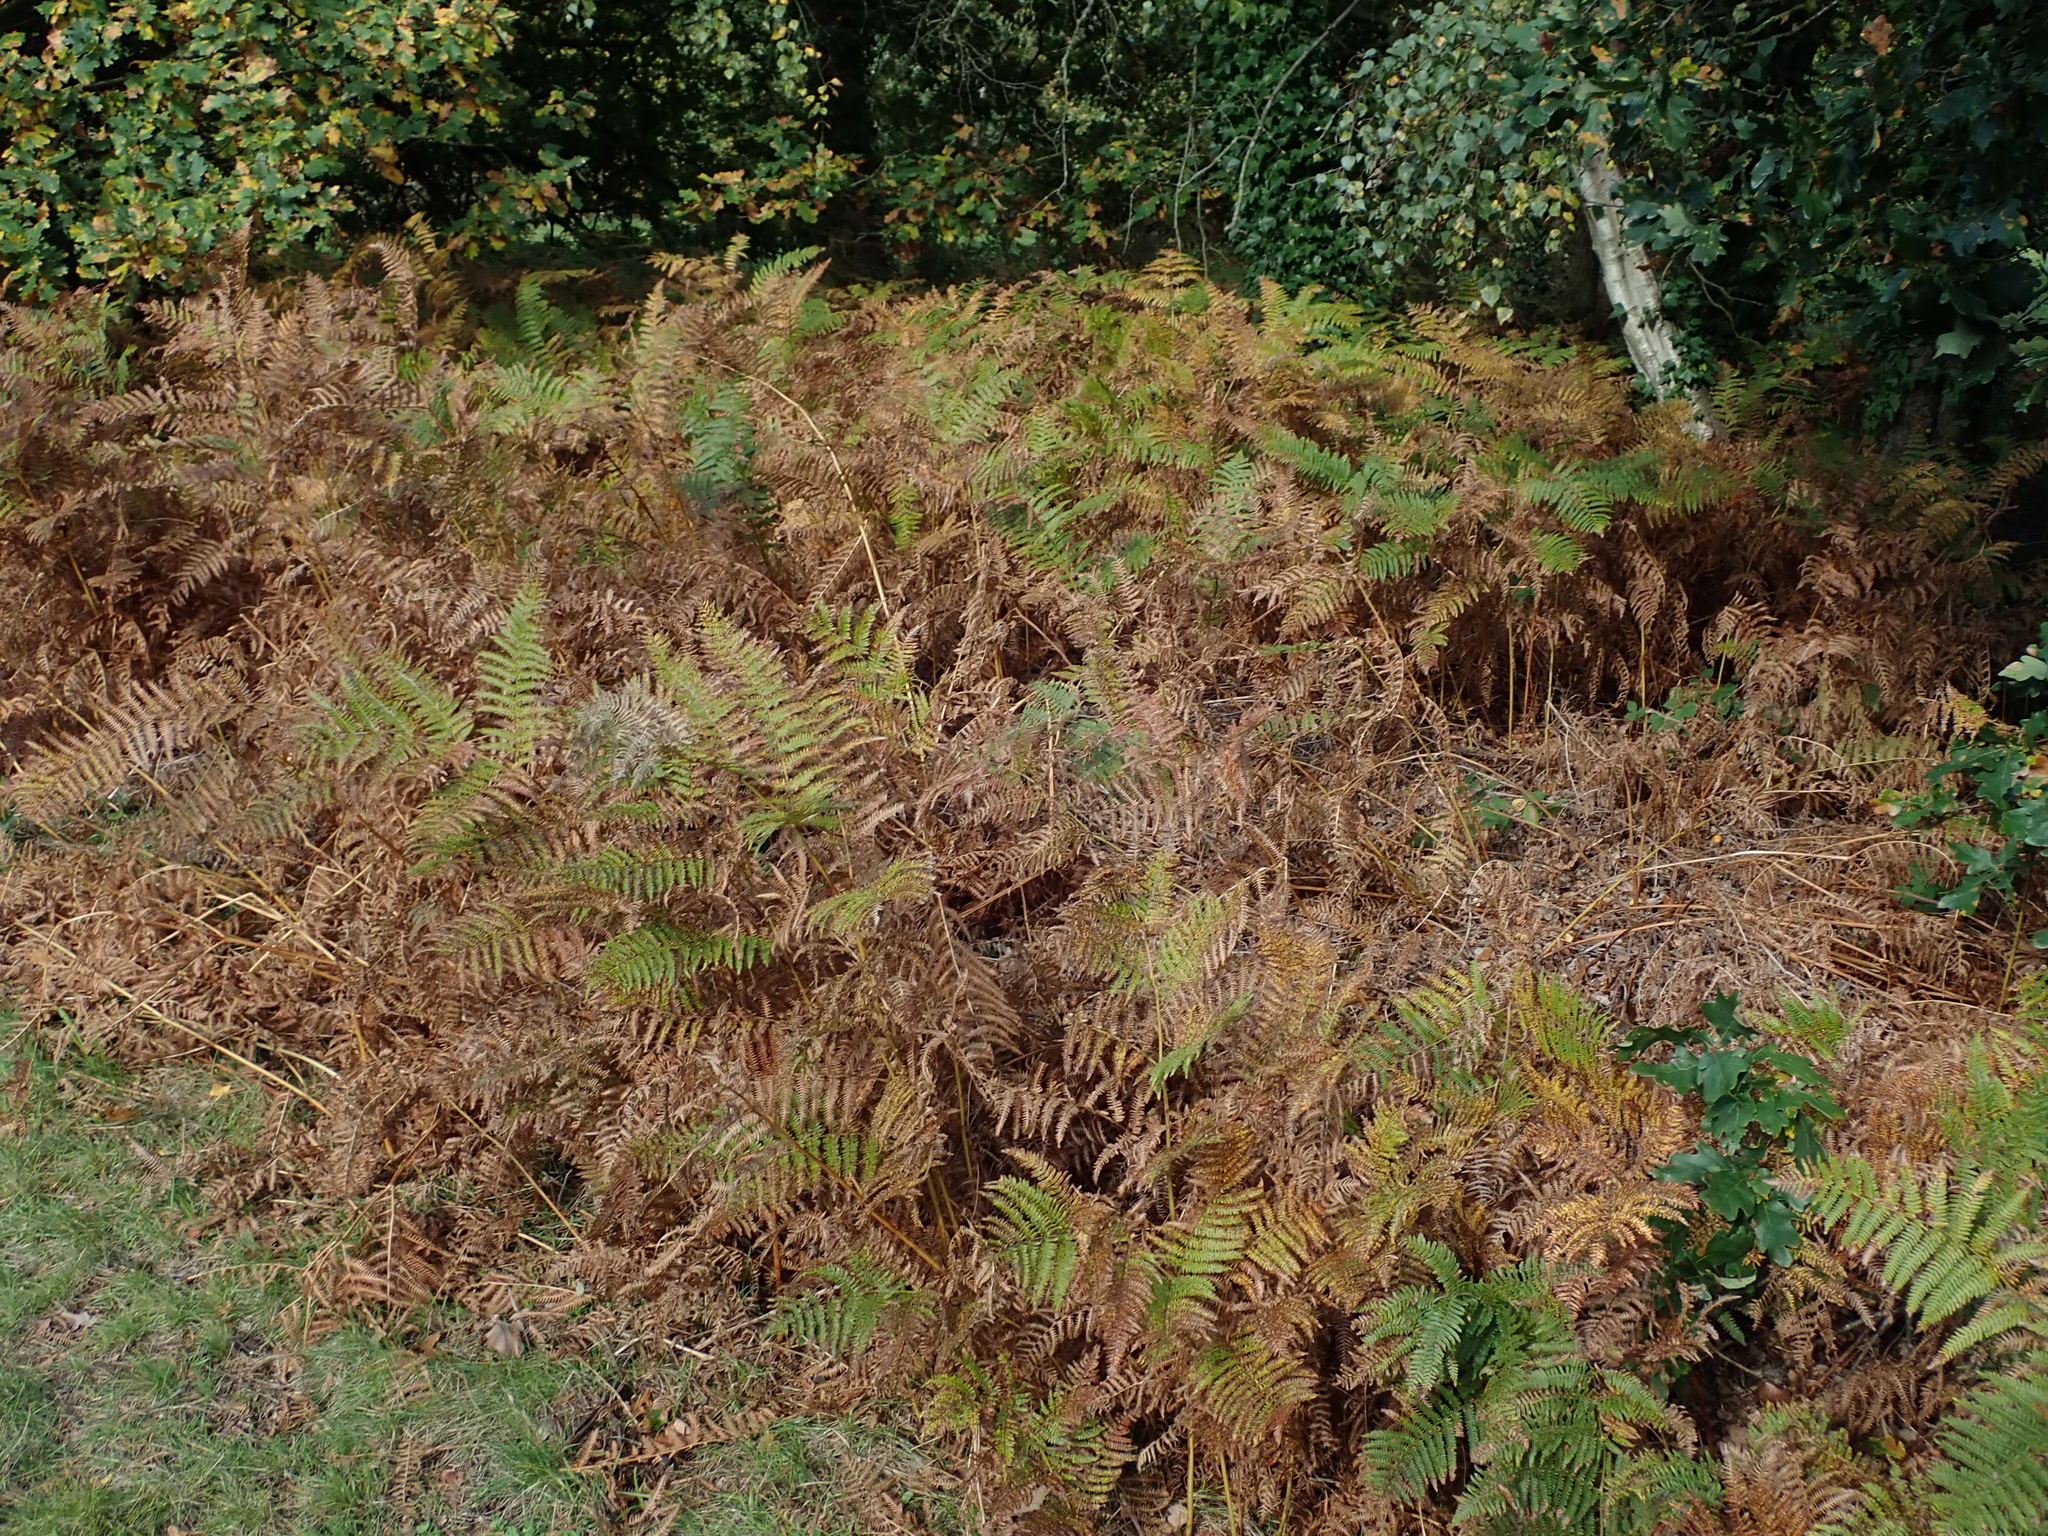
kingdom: Plantae
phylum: Tracheophyta
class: Polypodiopsida
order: Polypodiales
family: Dennstaedtiaceae
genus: Pteridium
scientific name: Pteridium aquilinum
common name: Bracken
